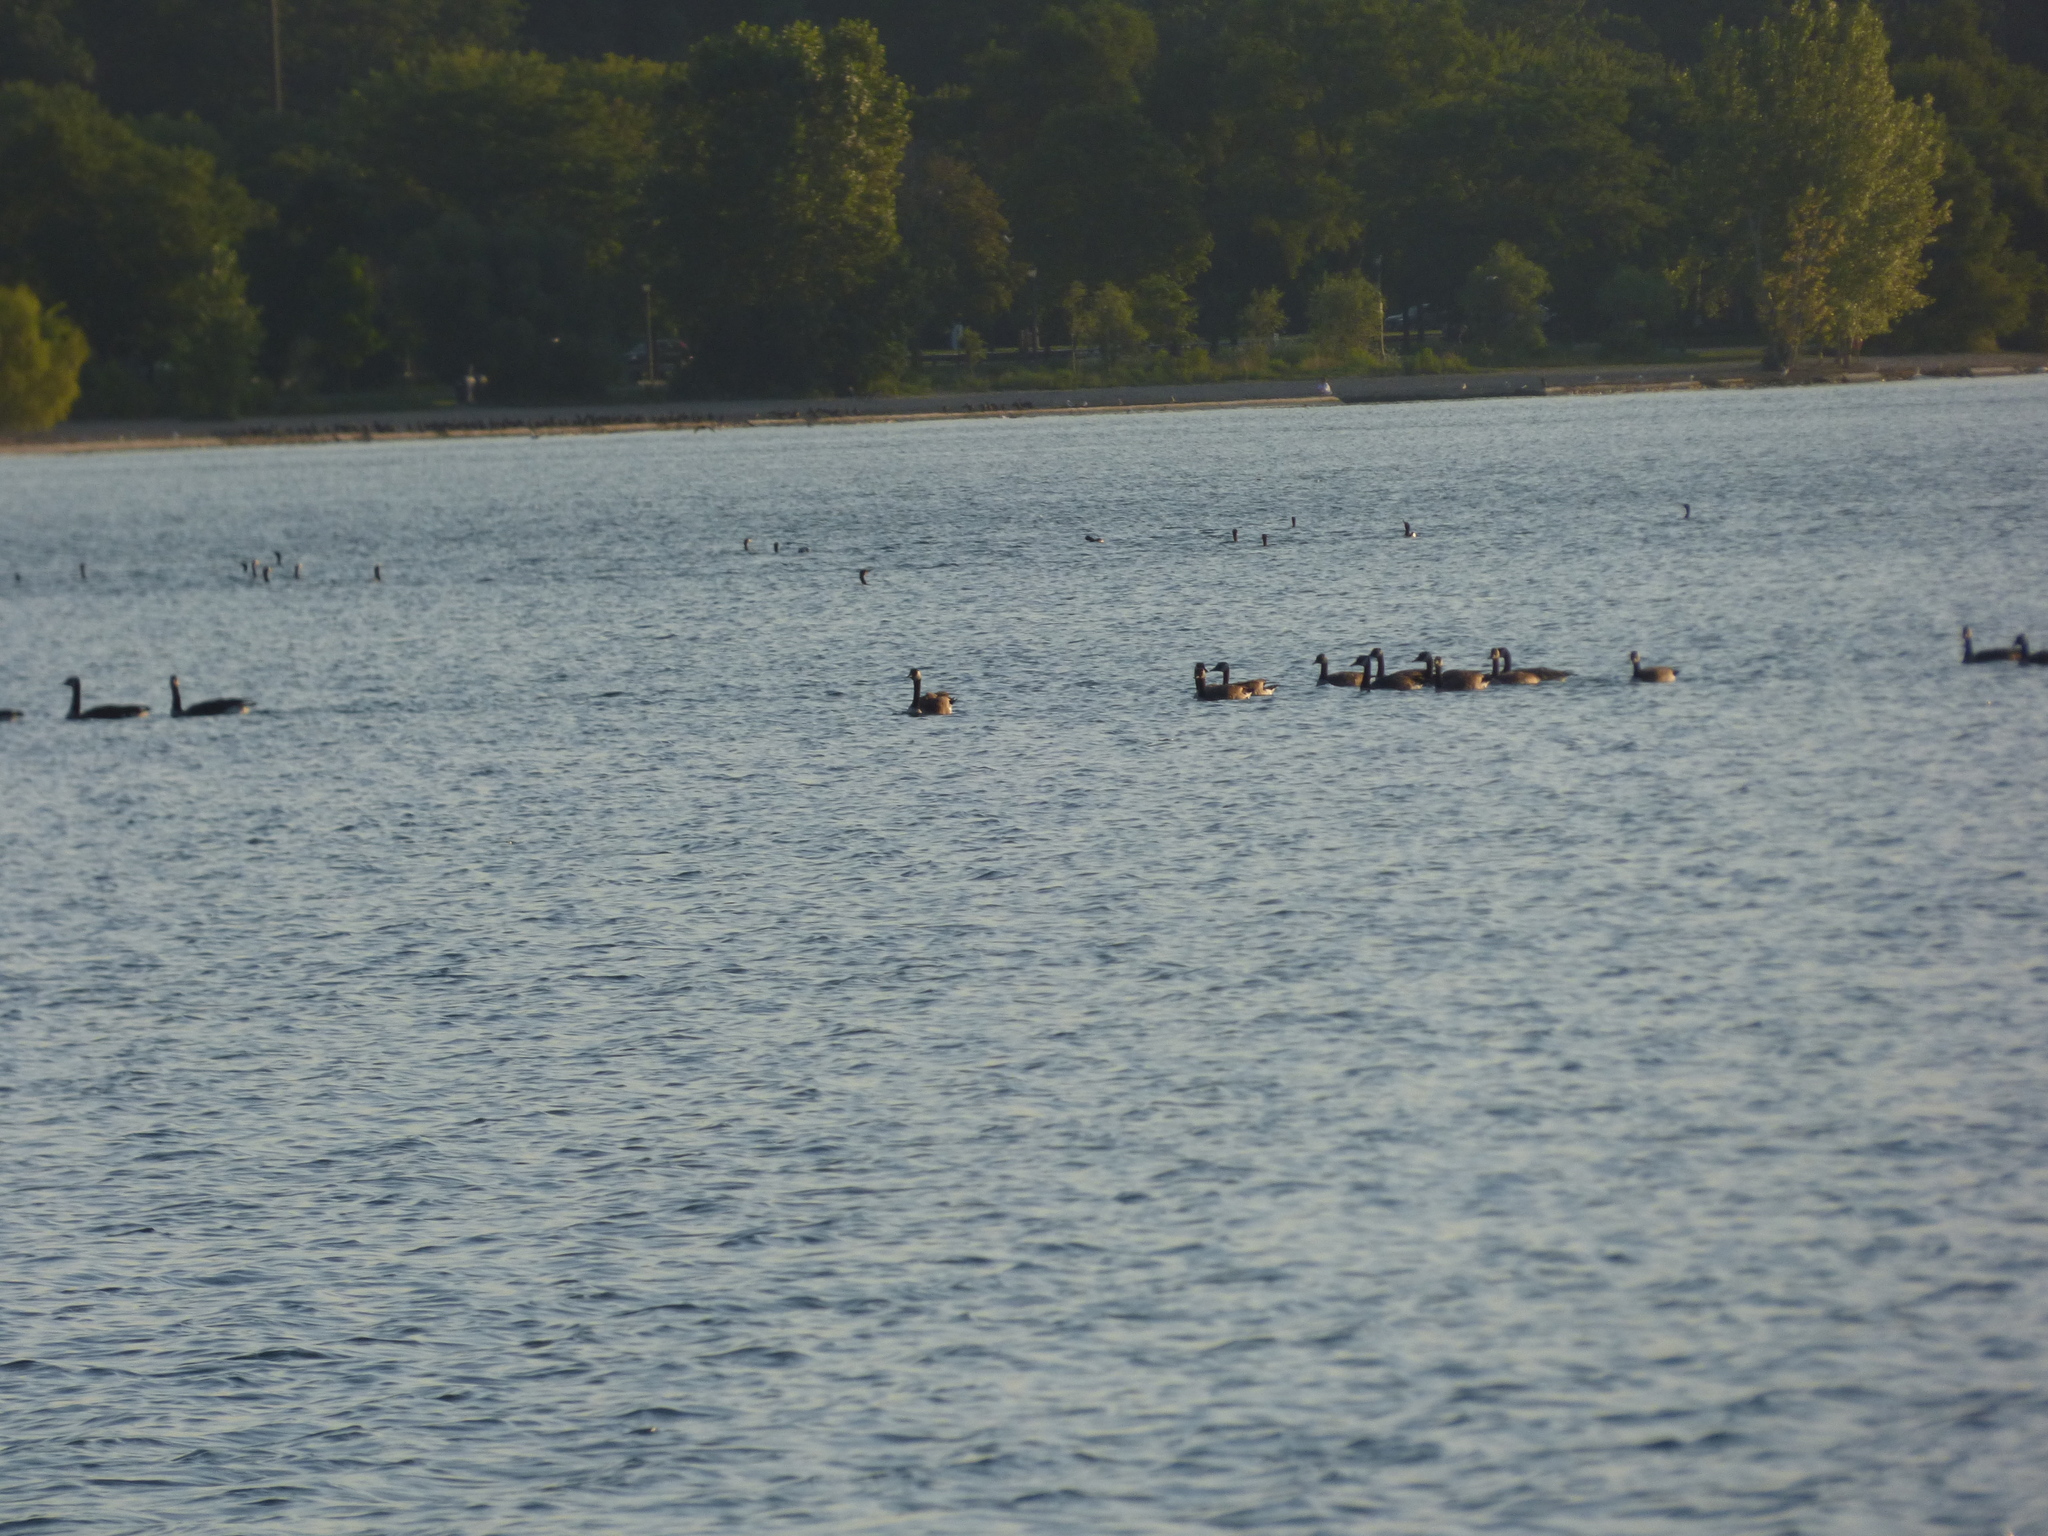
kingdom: Animalia
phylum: Chordata
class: Aves
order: Anseriformes
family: Anatidae
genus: Branta
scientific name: Branta canadensis
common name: Canada goose
